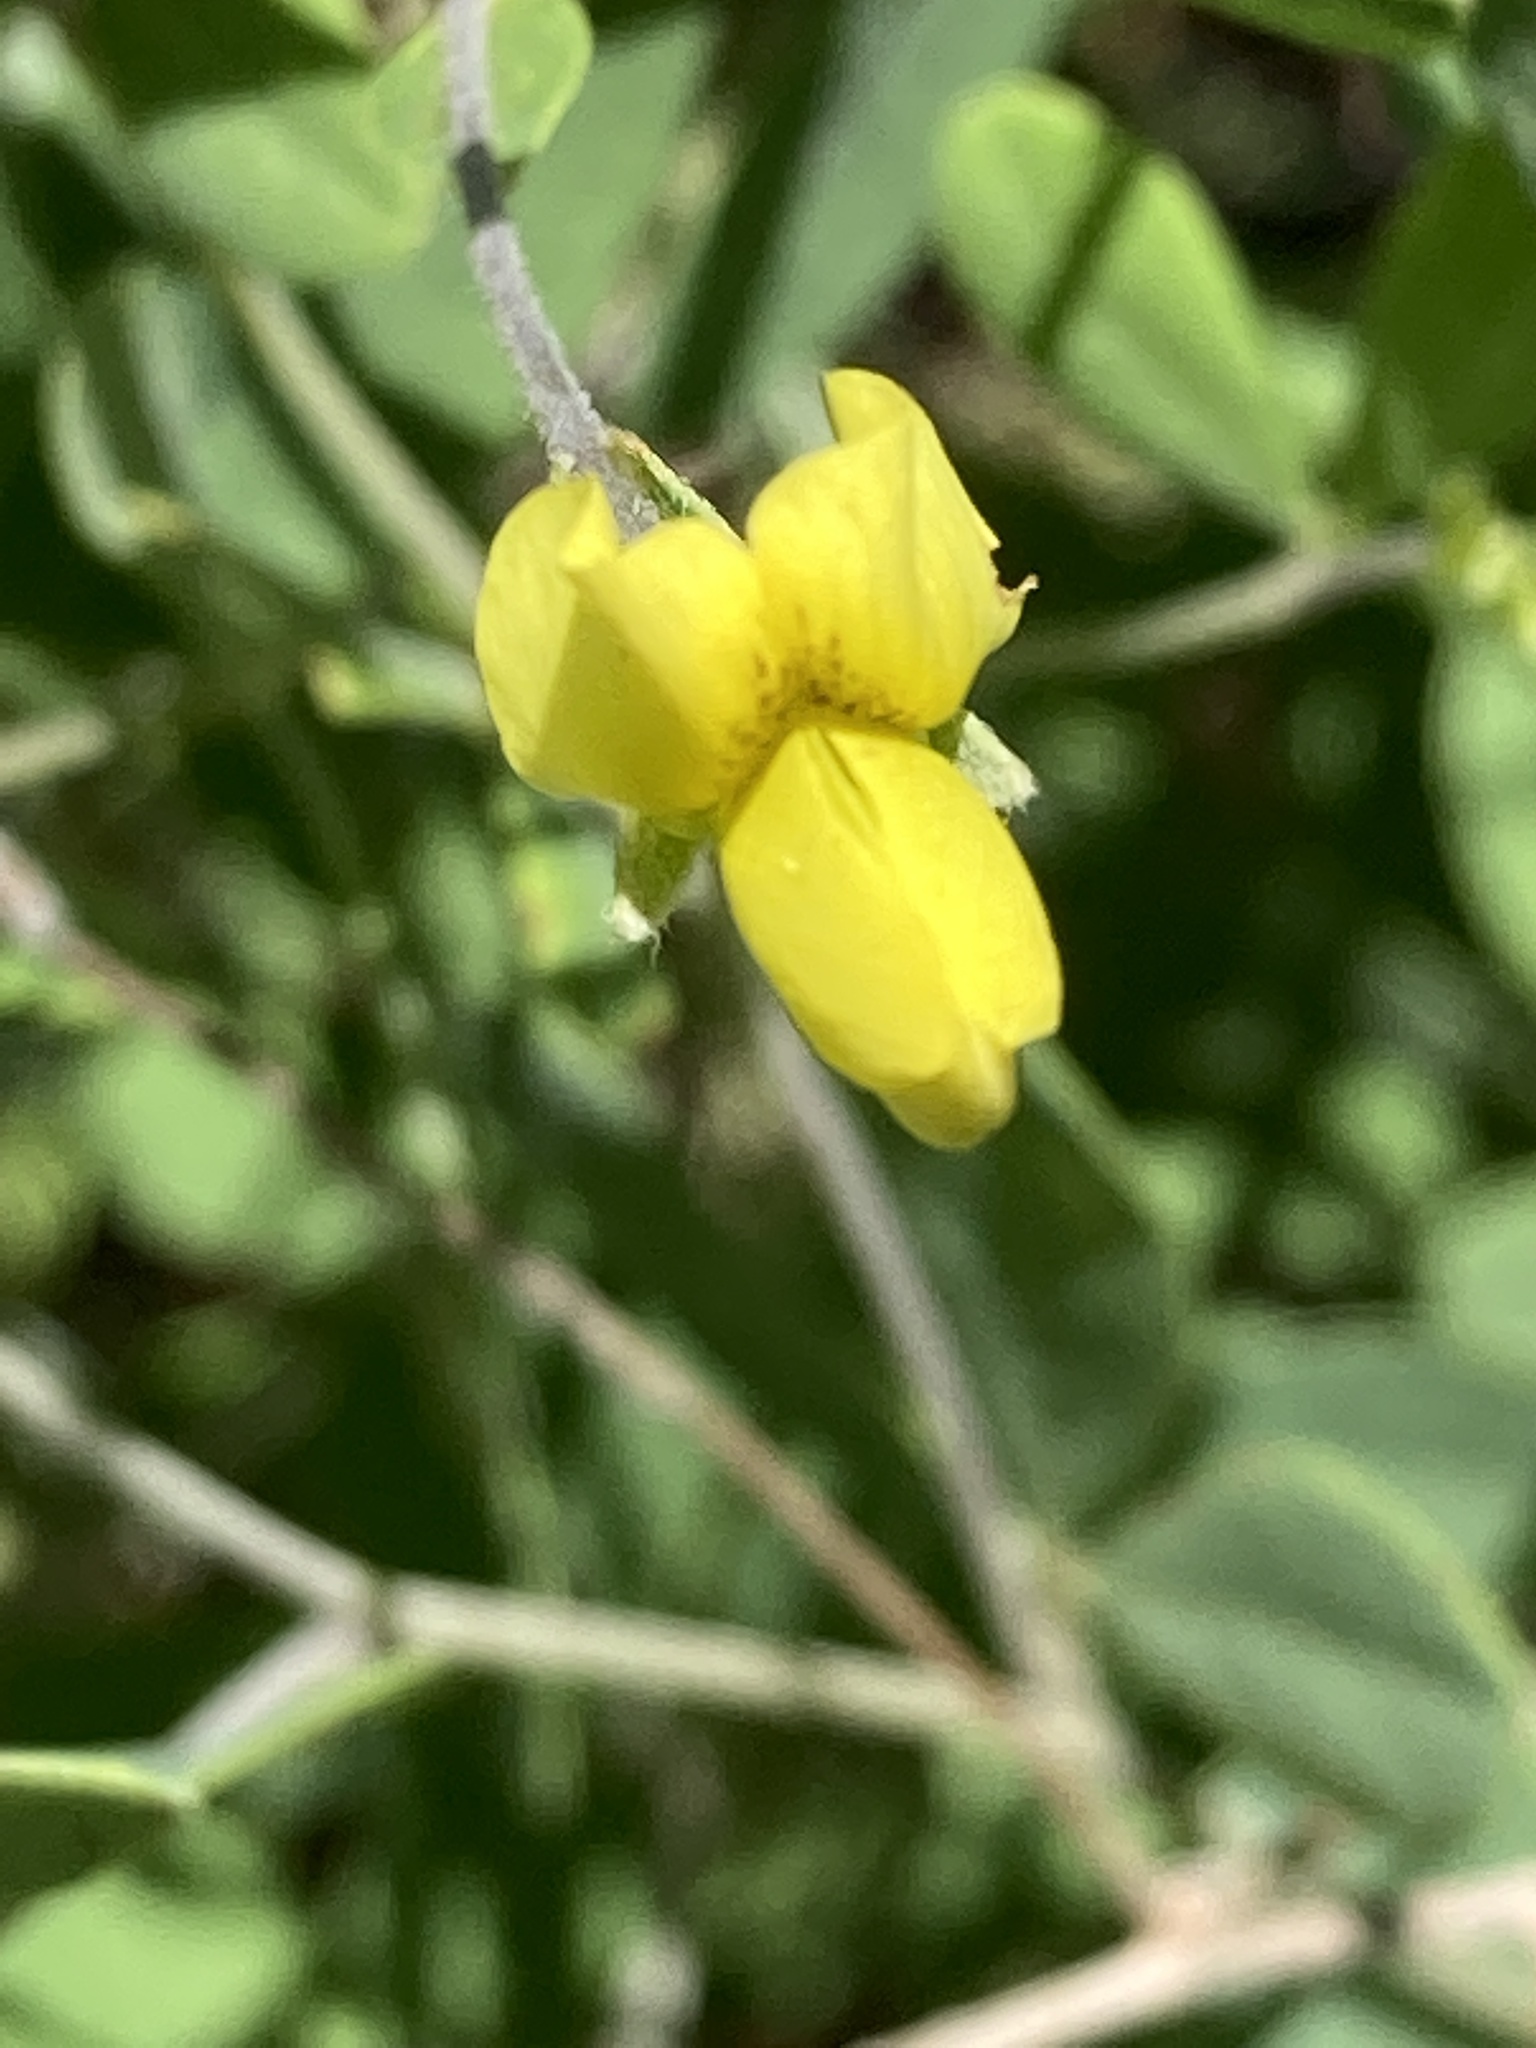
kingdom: Plantae
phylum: Tracheophyta
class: Magnoliopsida
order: Fabales
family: Fabaceae
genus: Baptisia
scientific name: Baptisia lecontei
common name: Pineland wild indigo
